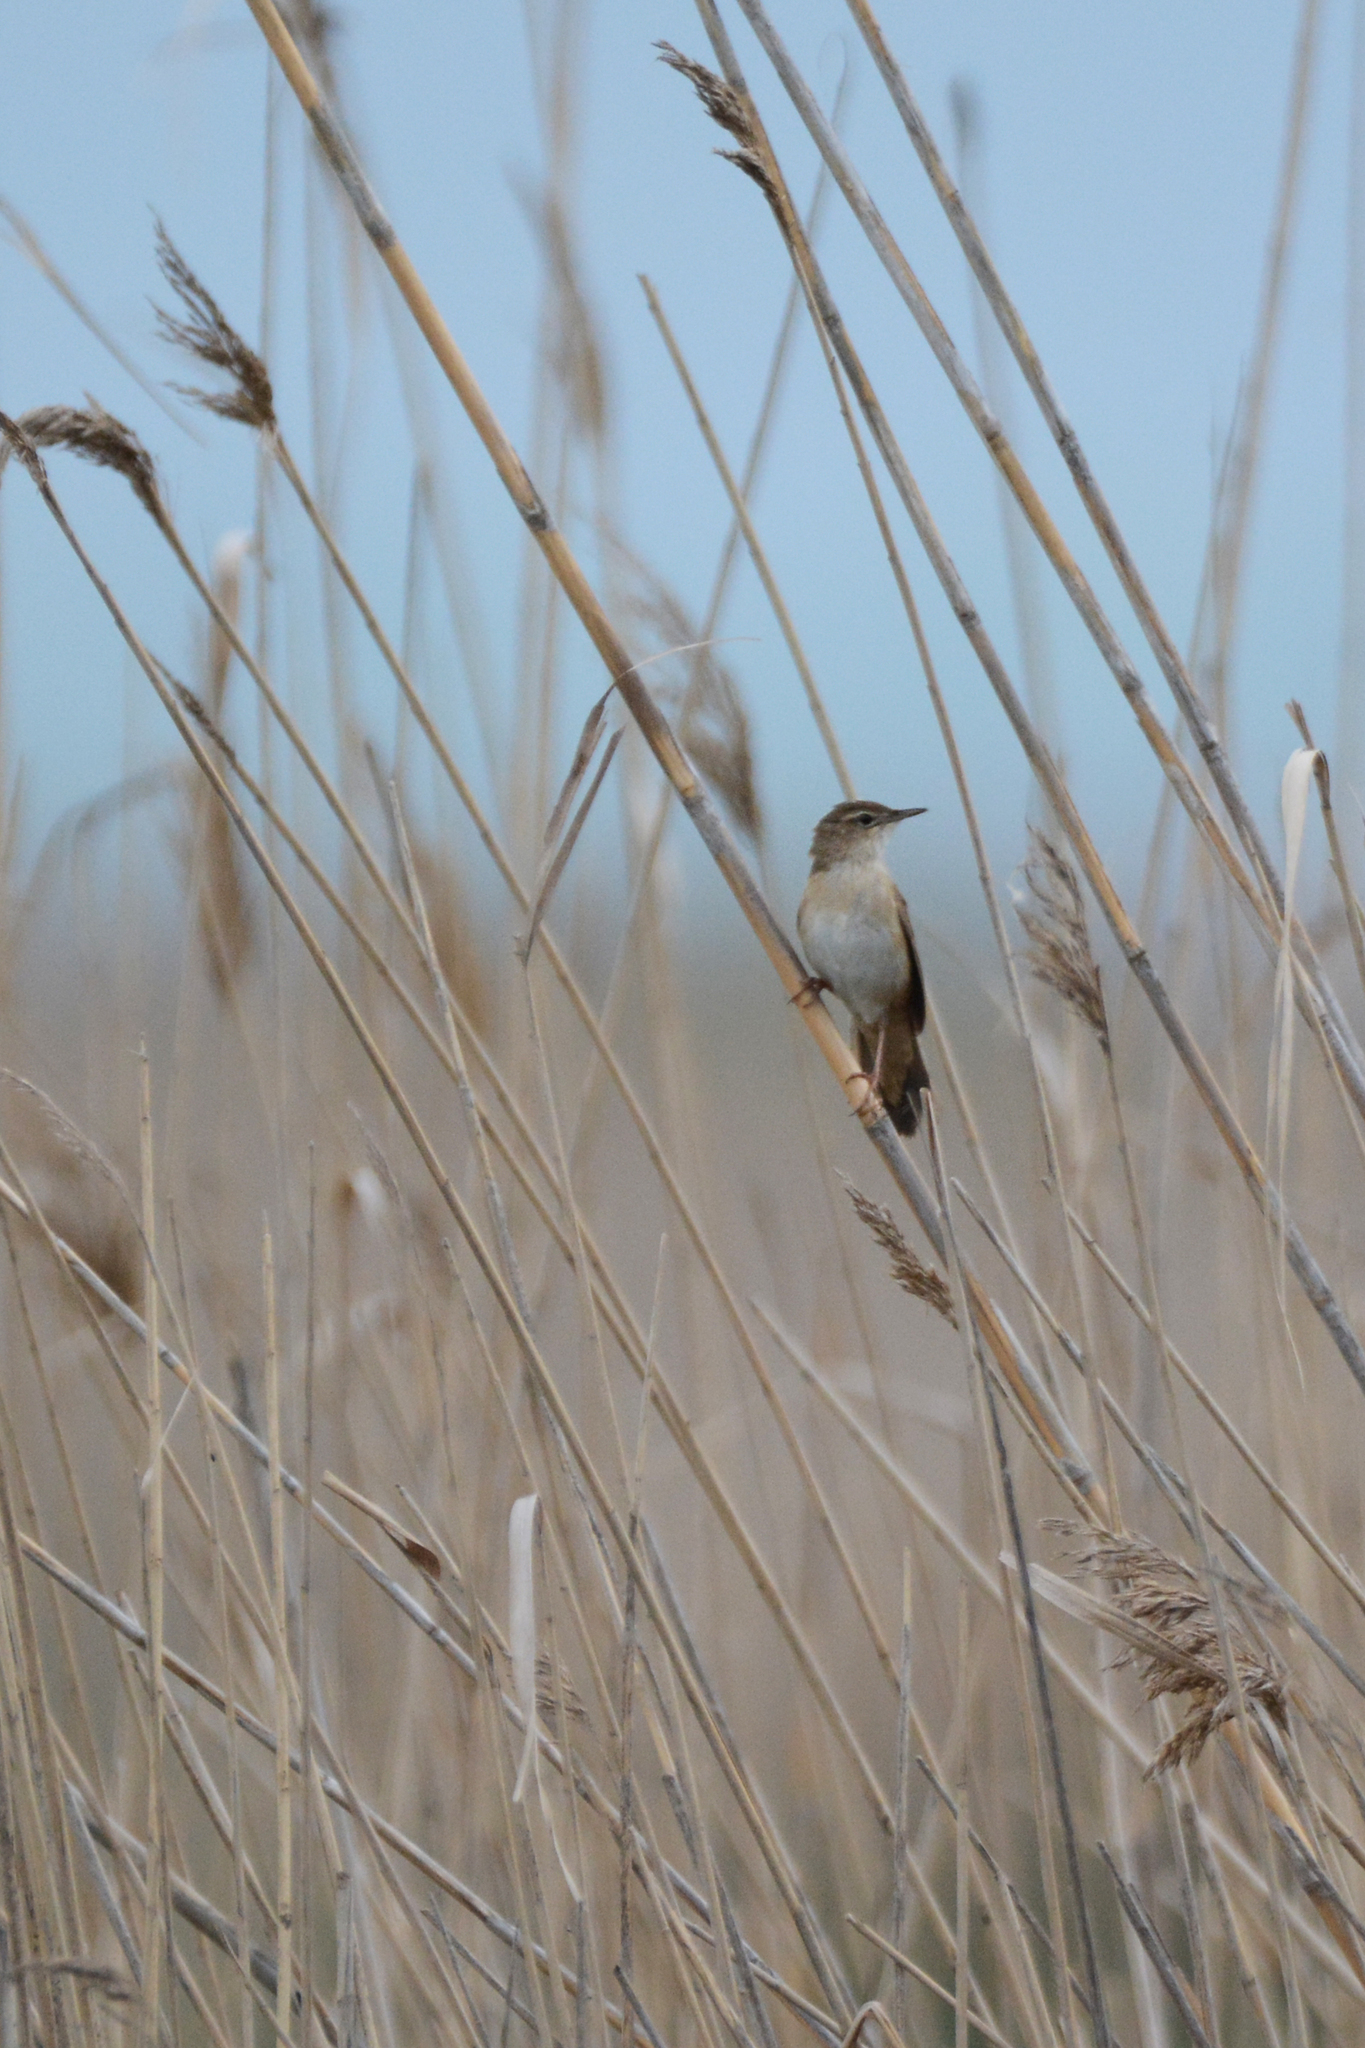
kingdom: Animalia
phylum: Chordata
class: Aves
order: Passeriformes
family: Locustellidae
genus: Locustella
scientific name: Locustella luscinioides
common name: Savi's warbler
